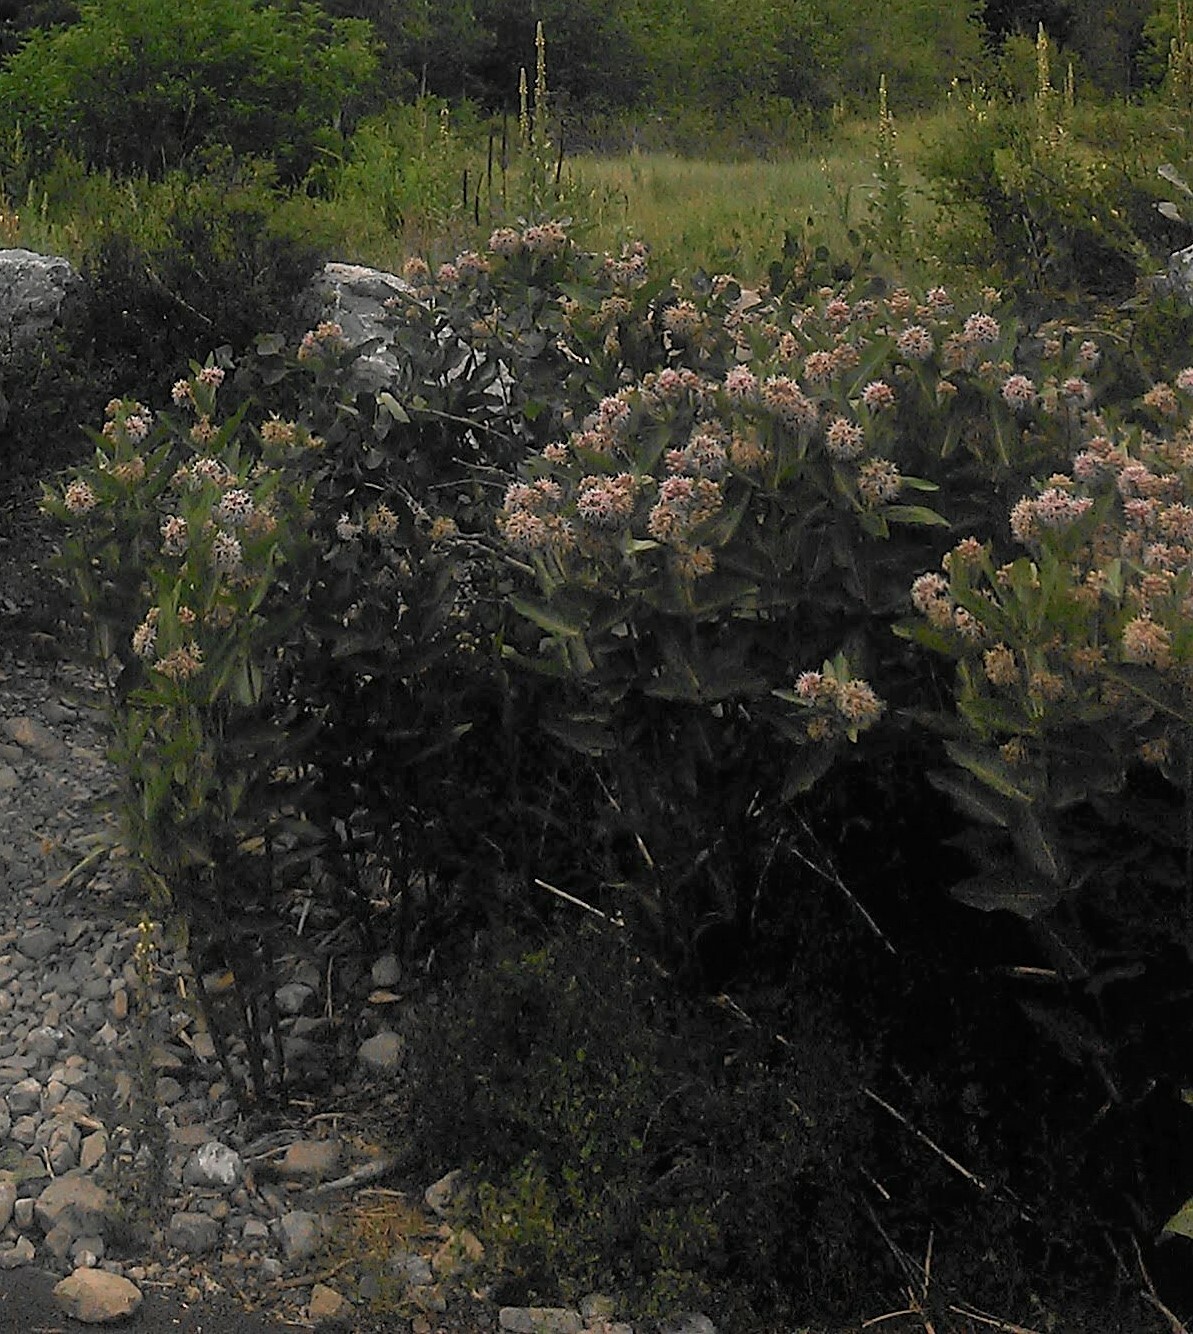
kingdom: Plantae
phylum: Tracheophyta
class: Magnoliopsida
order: Gentianales
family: Apocynaceae
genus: Asclepias
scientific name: Asclepias speciosa
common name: Showy milkweed
